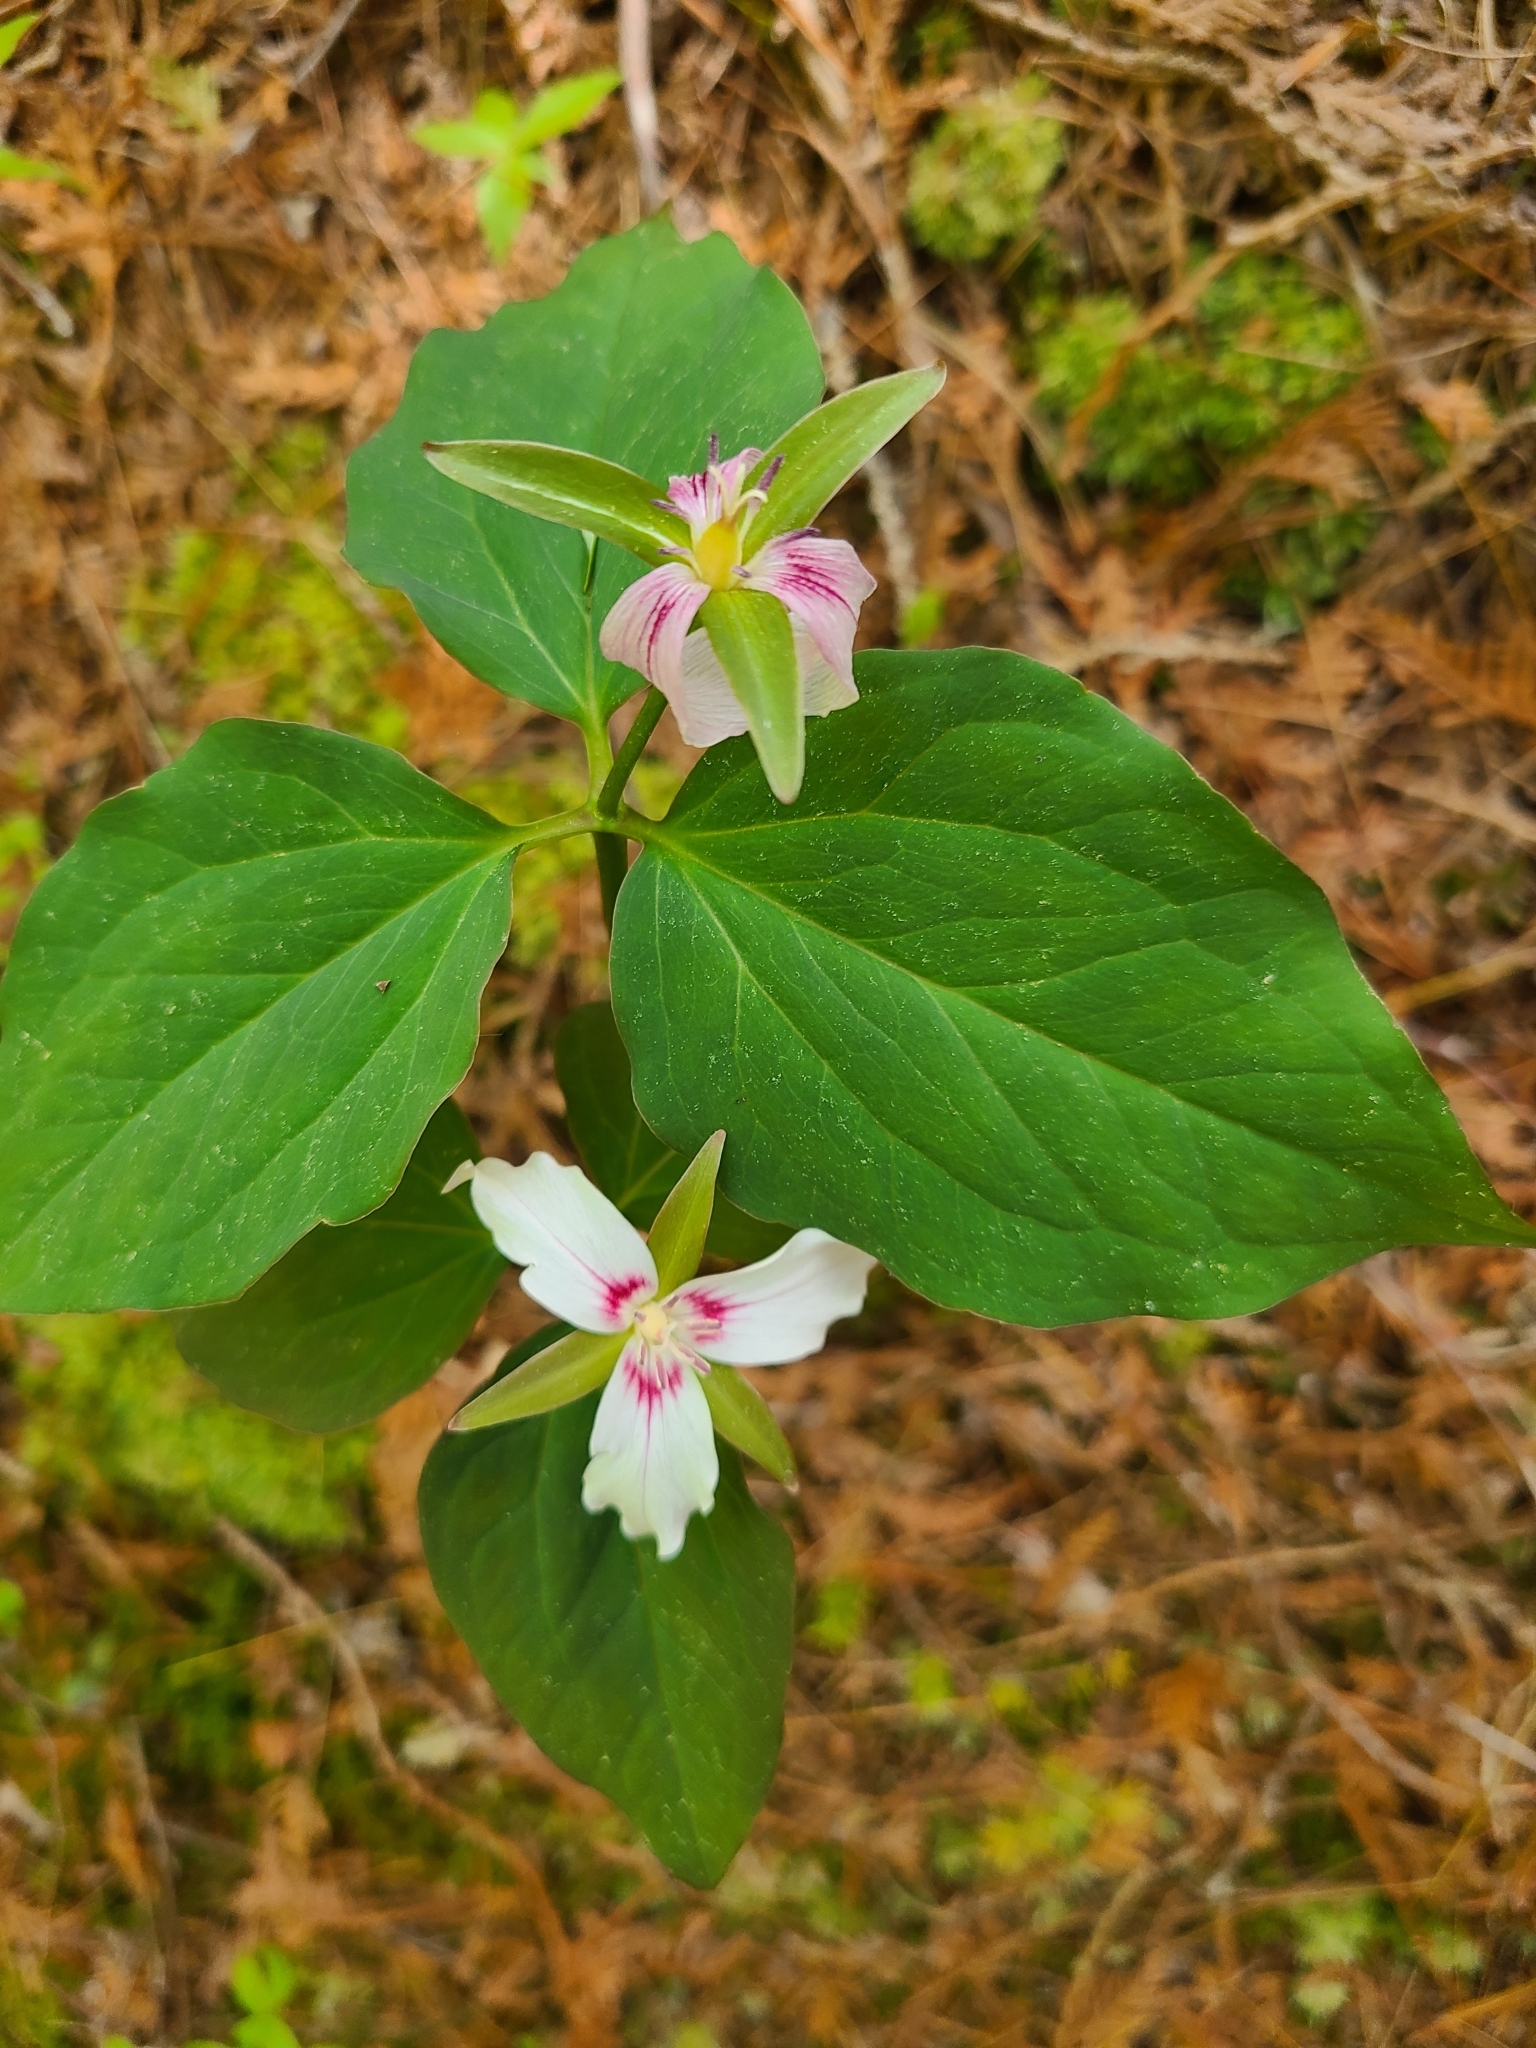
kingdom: Plantae
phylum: Tracheophyta
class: Liliopsida
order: Liliales
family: Melanthiaceae
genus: Trillium
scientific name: Trillium undulatum
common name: Paint trillium
